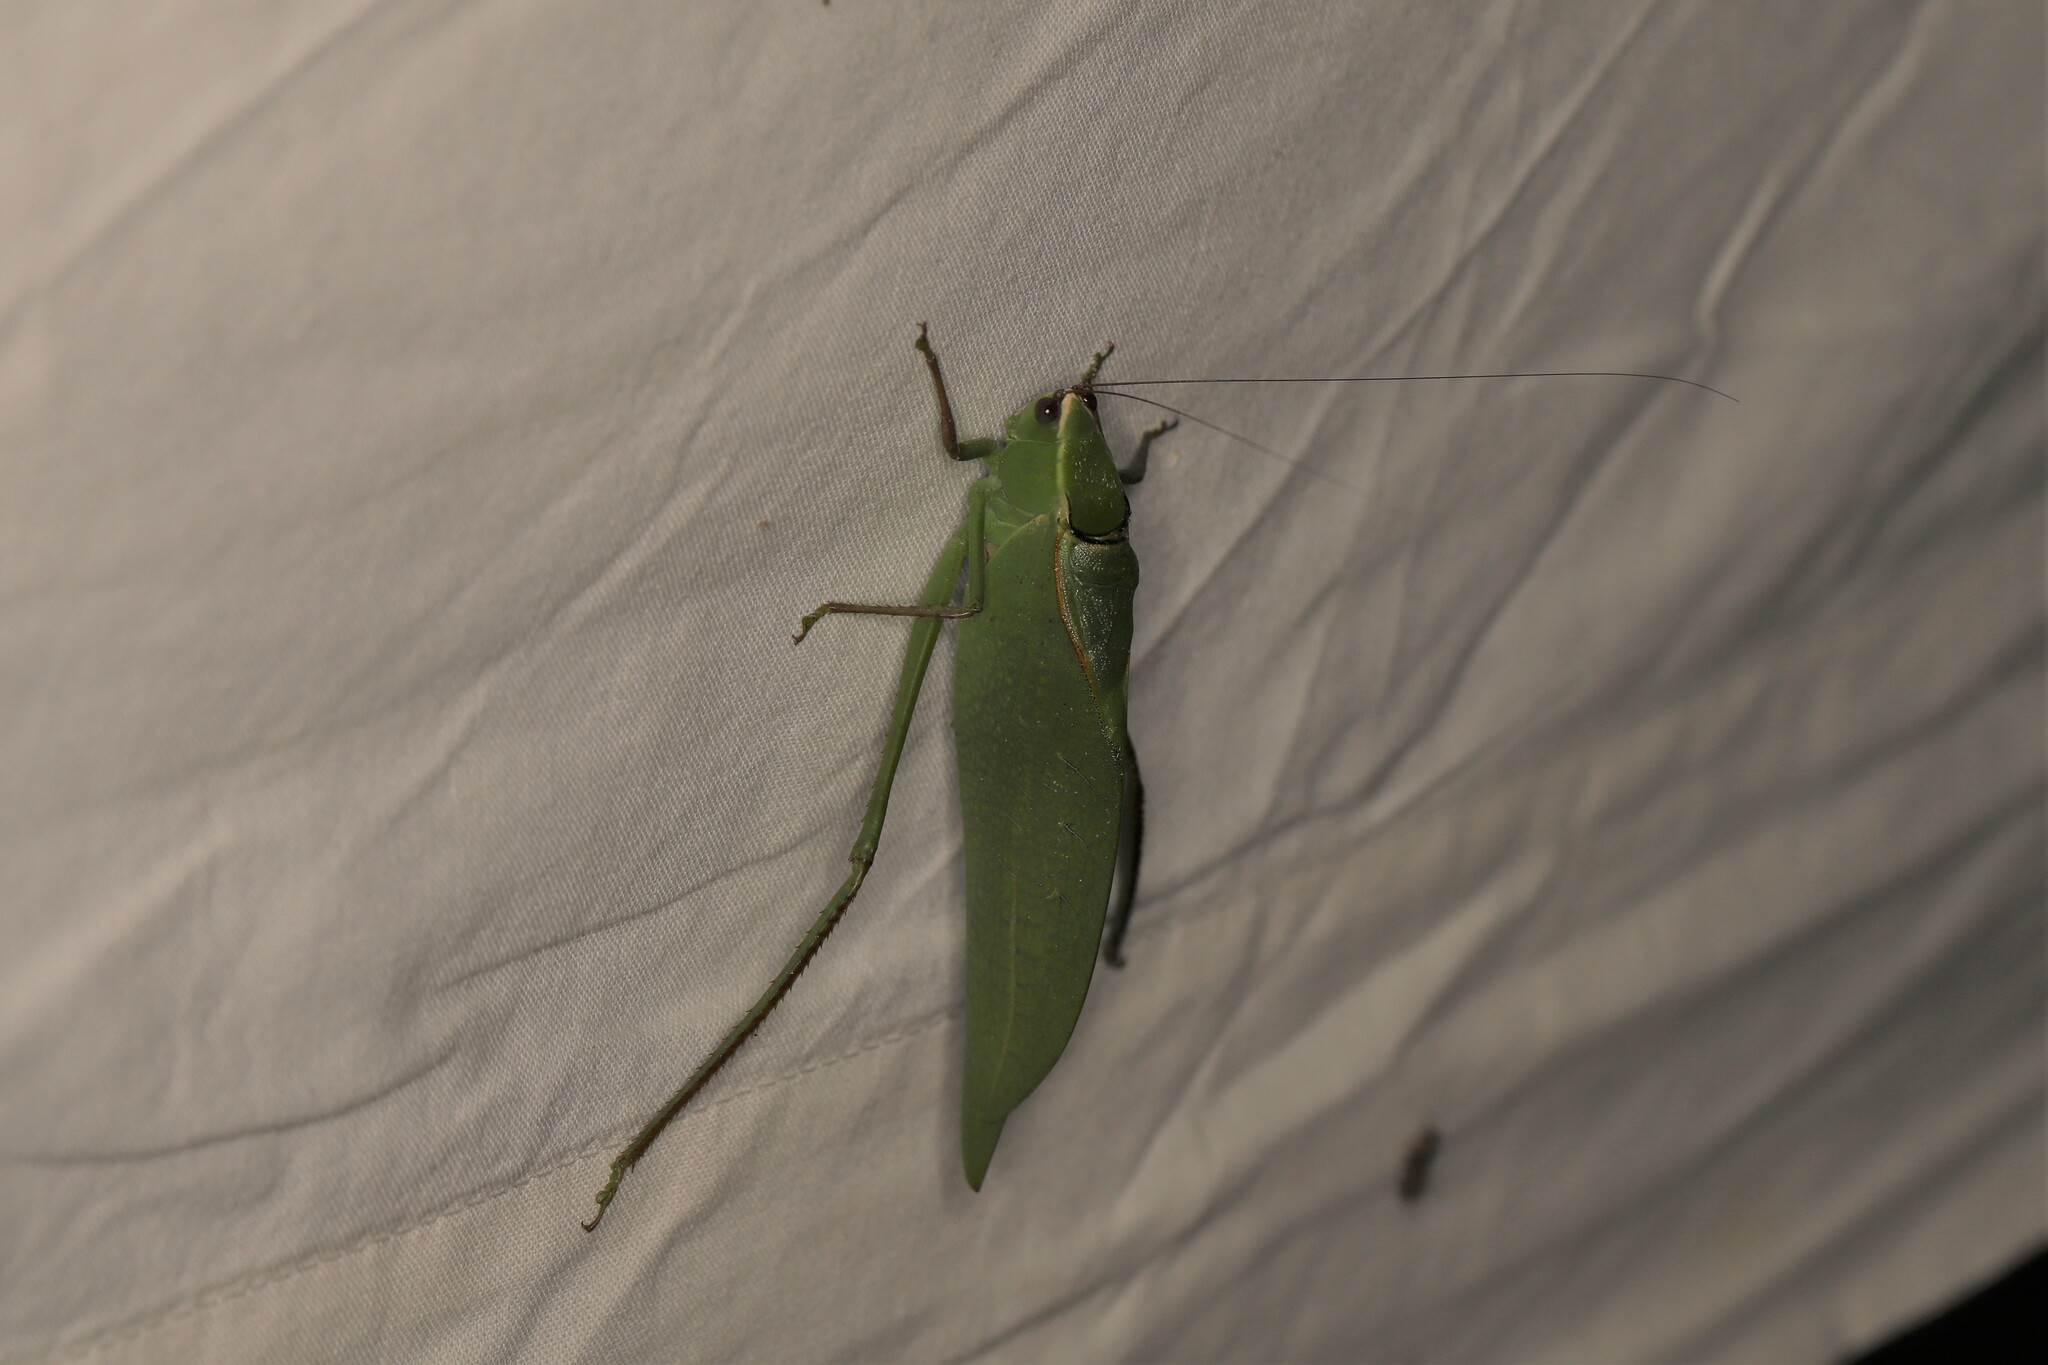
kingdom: Animalia
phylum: Arthropoda
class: Insecta
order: Orthoptera
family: Tettigoniidae
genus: Stilpnochlora
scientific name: Stilpnochlora aztecoides
